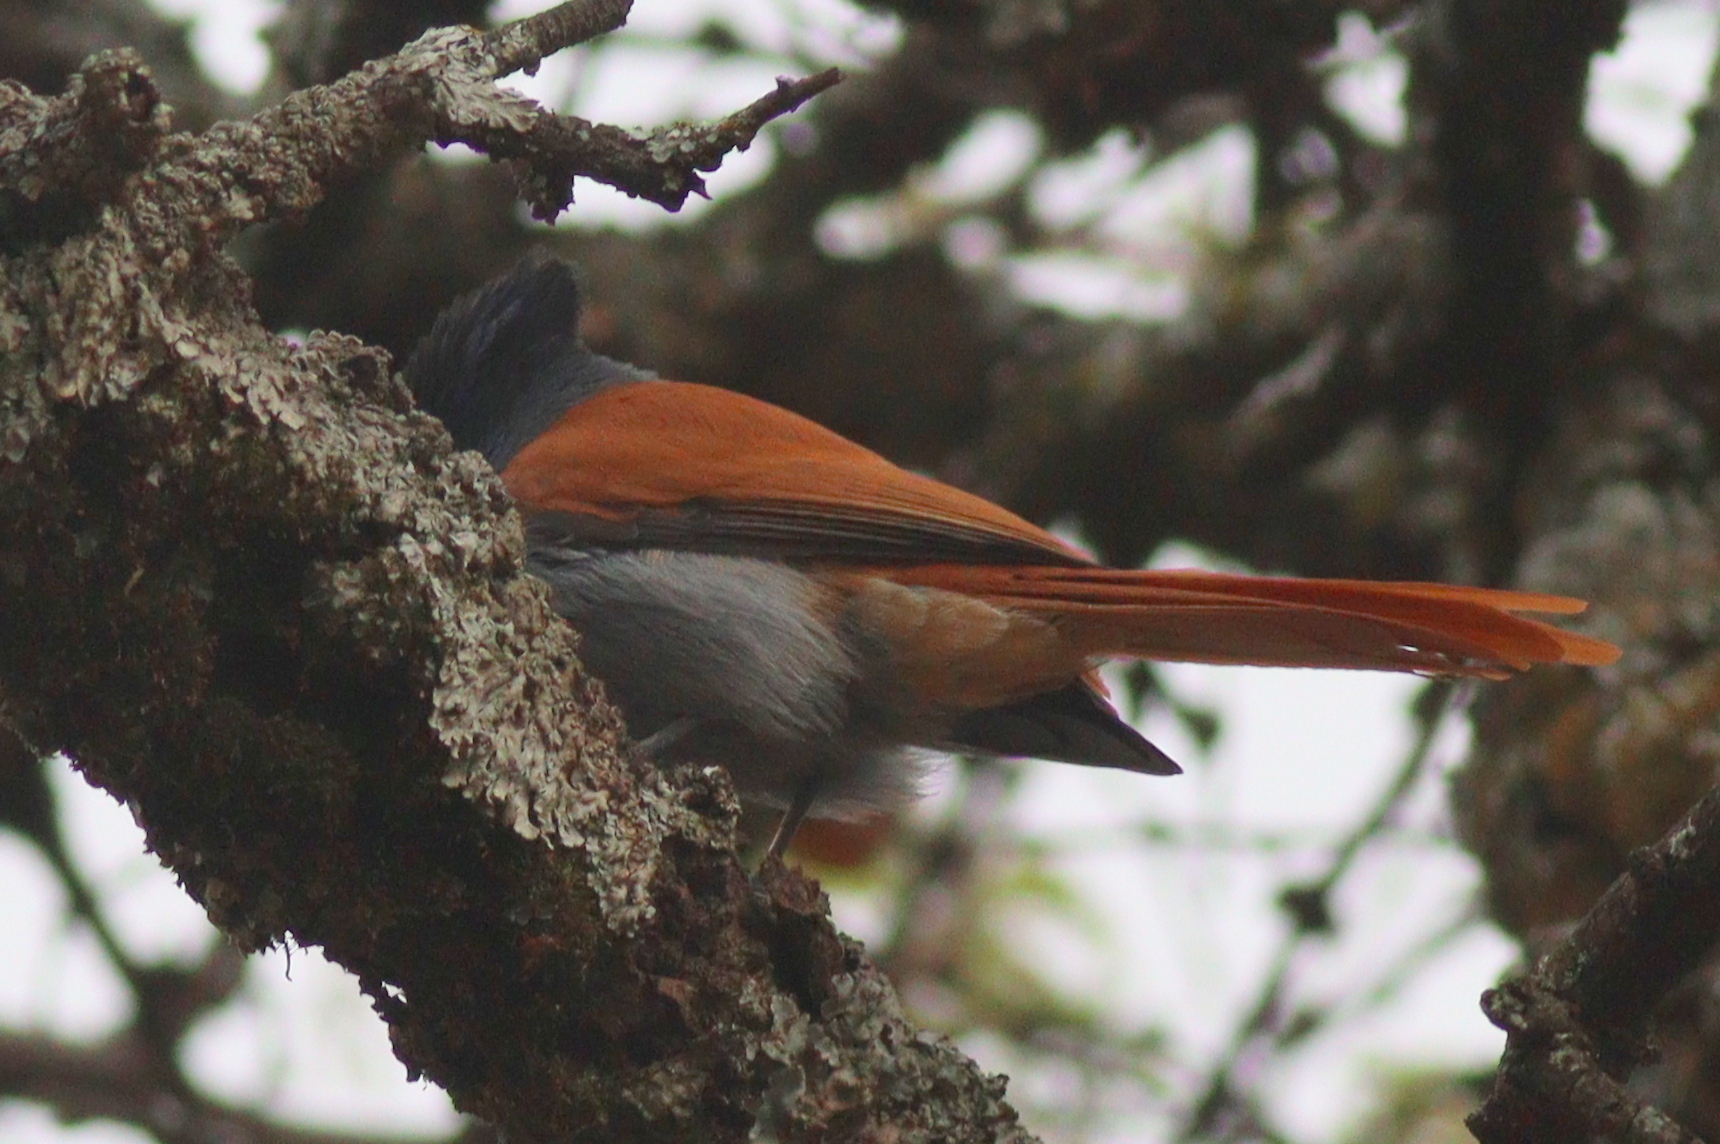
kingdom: Animalia
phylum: Chordata
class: Aves
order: Passeriformes
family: Monarchidae
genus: Terpsiphone
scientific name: Terpsiphone viridis
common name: African paradise flycatcher
